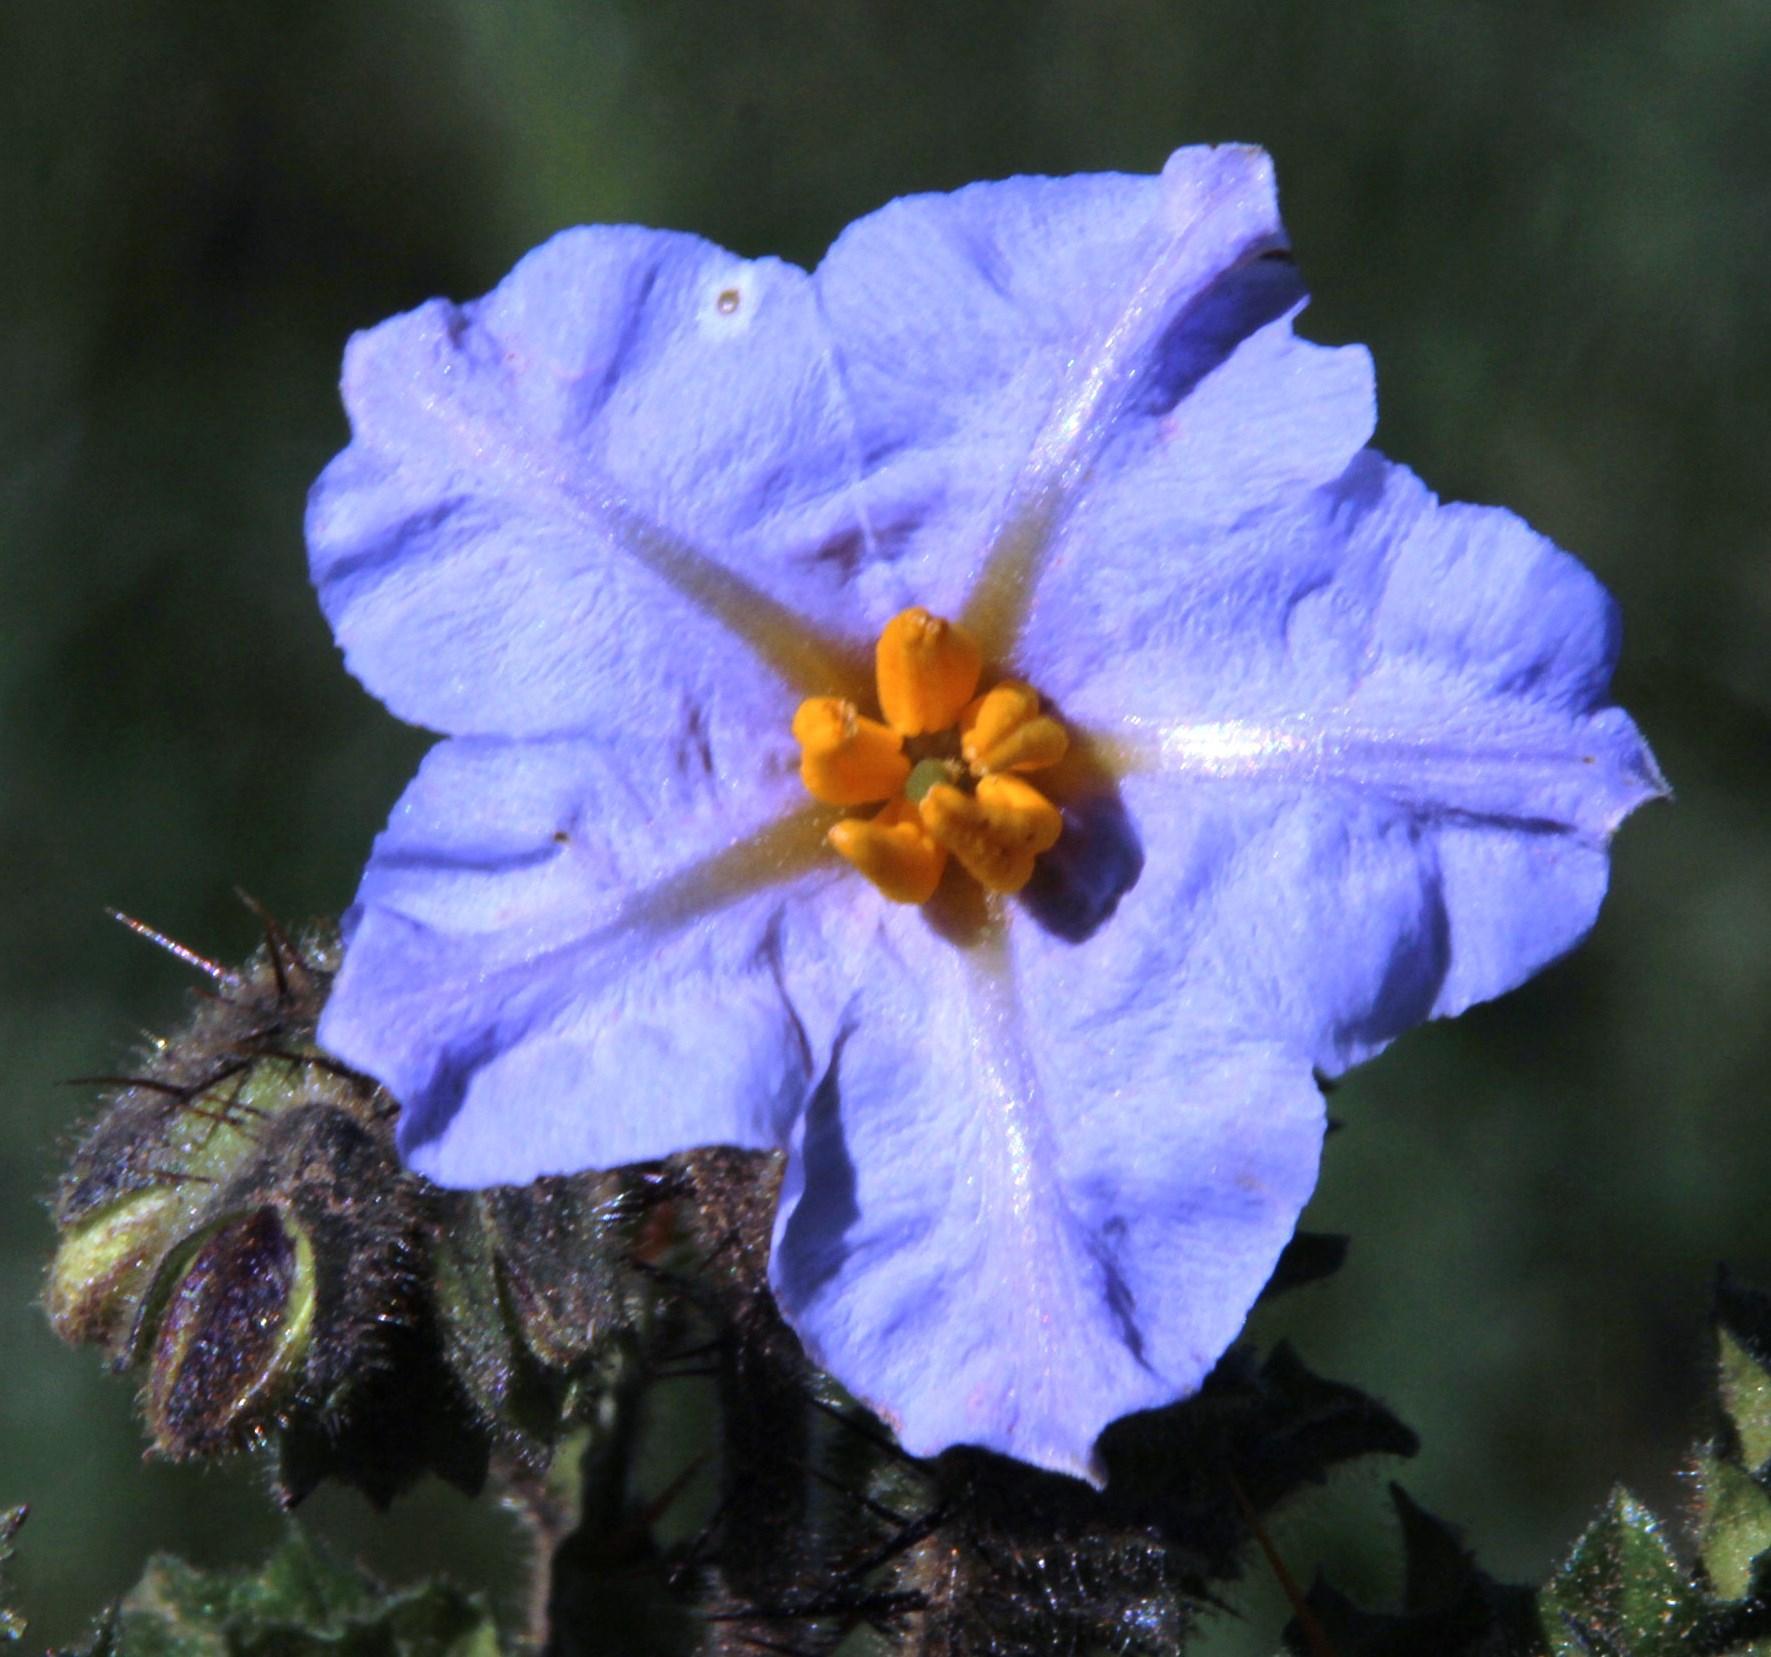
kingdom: Plantae
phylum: Tracheophyta
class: Magnoliopsida
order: Solanales
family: Solanaceae
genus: Solanum
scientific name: Solanum sisymbriifolium
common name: Red buffalo-bur
